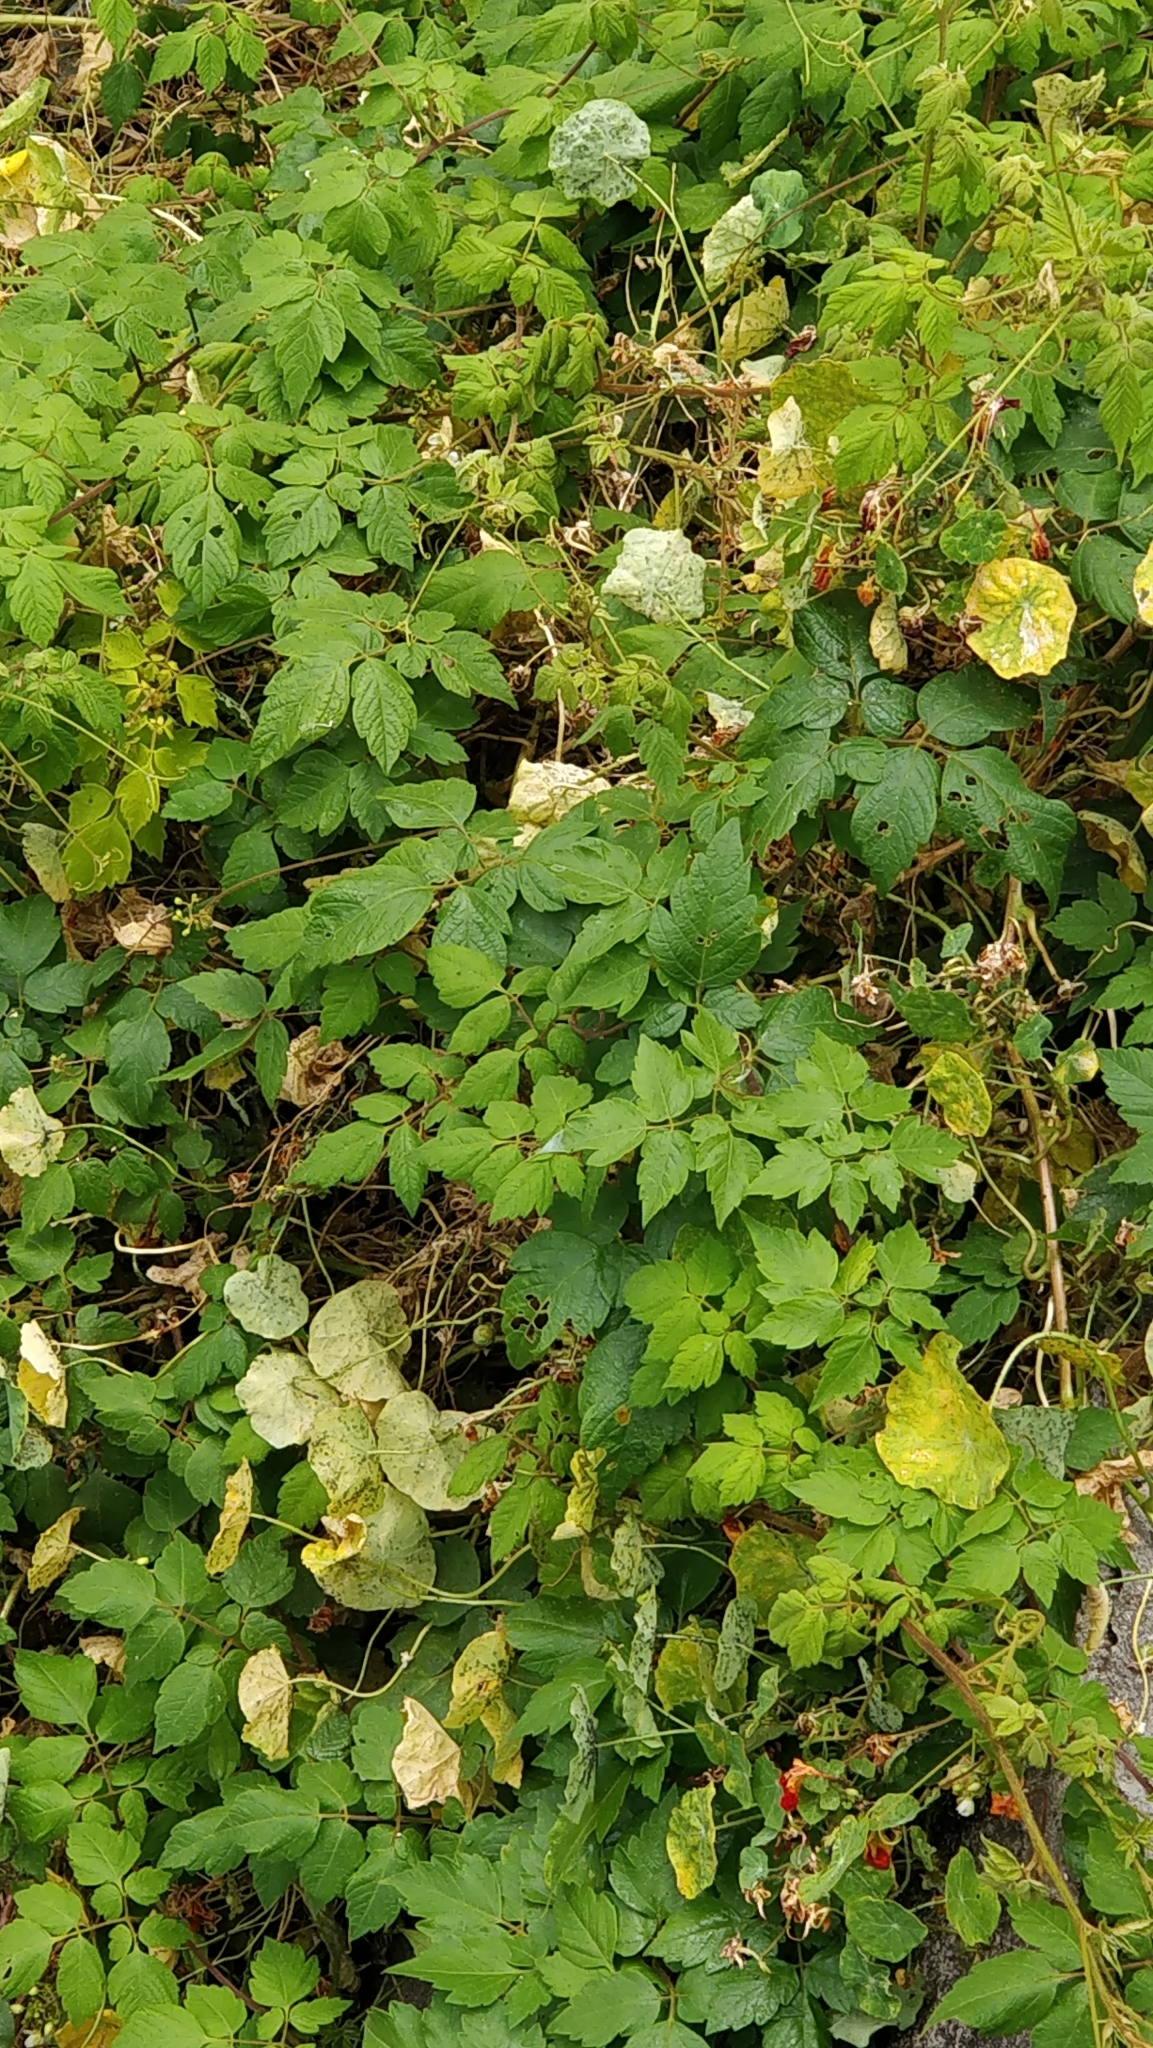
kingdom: Plantae
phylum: Tracheophyta
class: Magnoliopsida
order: Sapindales
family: Sapindaceae
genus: Cardiospermum
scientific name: Cardiospermum grandiflorum
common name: Balloon vine
